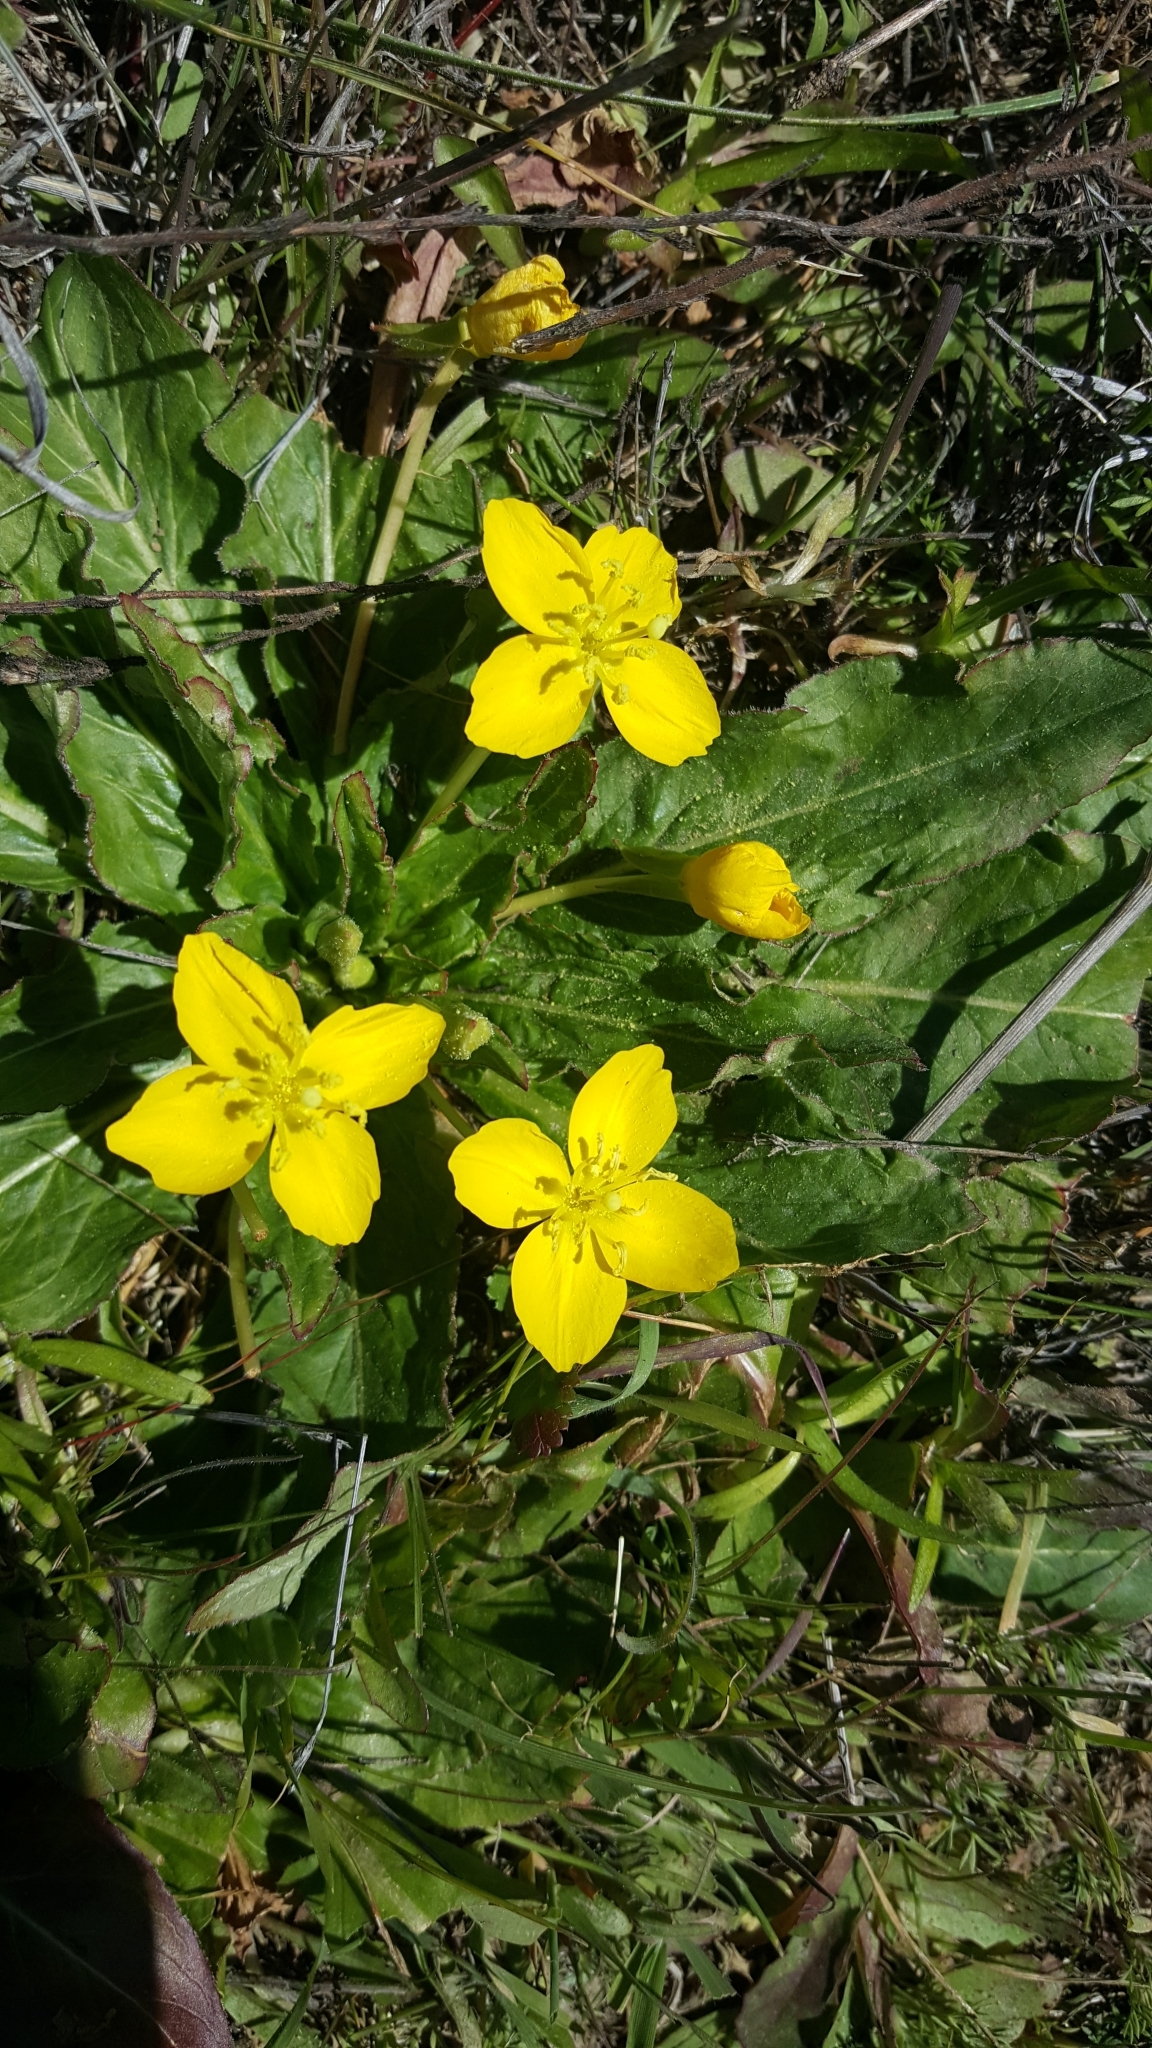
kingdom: Plantae
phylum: Tracheophyta
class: Magnoliopsida
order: Myrtales
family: Onagraceae
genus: Taraxia
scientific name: Taraxia ovata
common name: Goldeneggs
